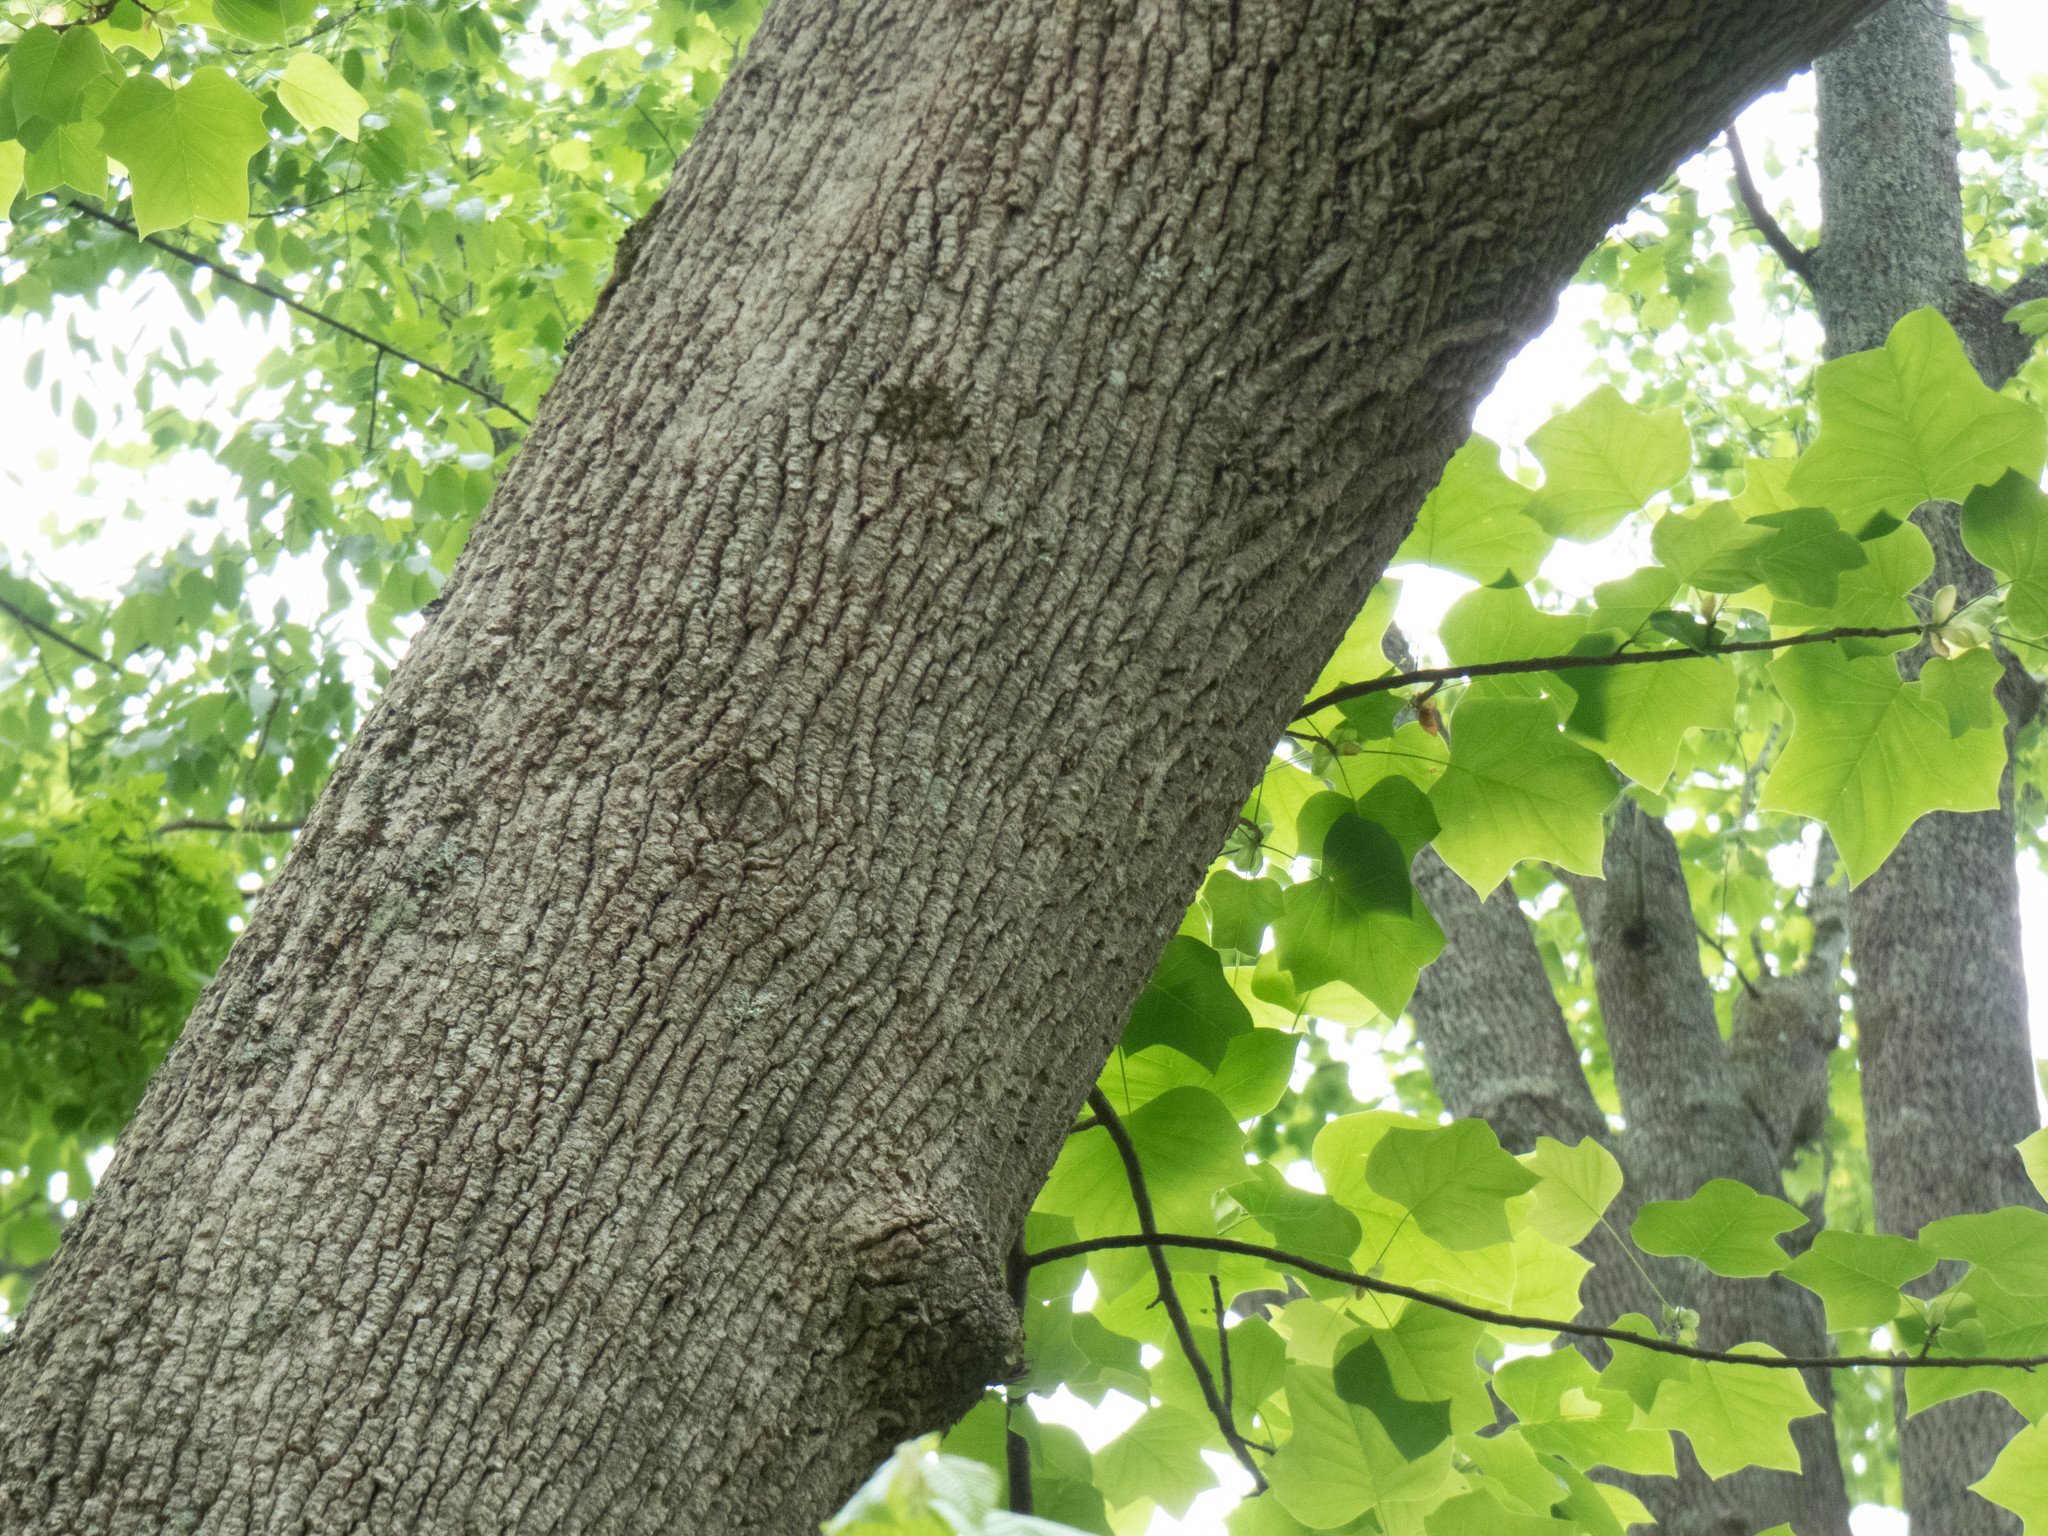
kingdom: Plantae
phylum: Tracheophyta
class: Magnoliopsida
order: Magnoliales
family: Magnoliaceae
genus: Liriodendron
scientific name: Liriodendron tulipifera
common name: Tulip tree
